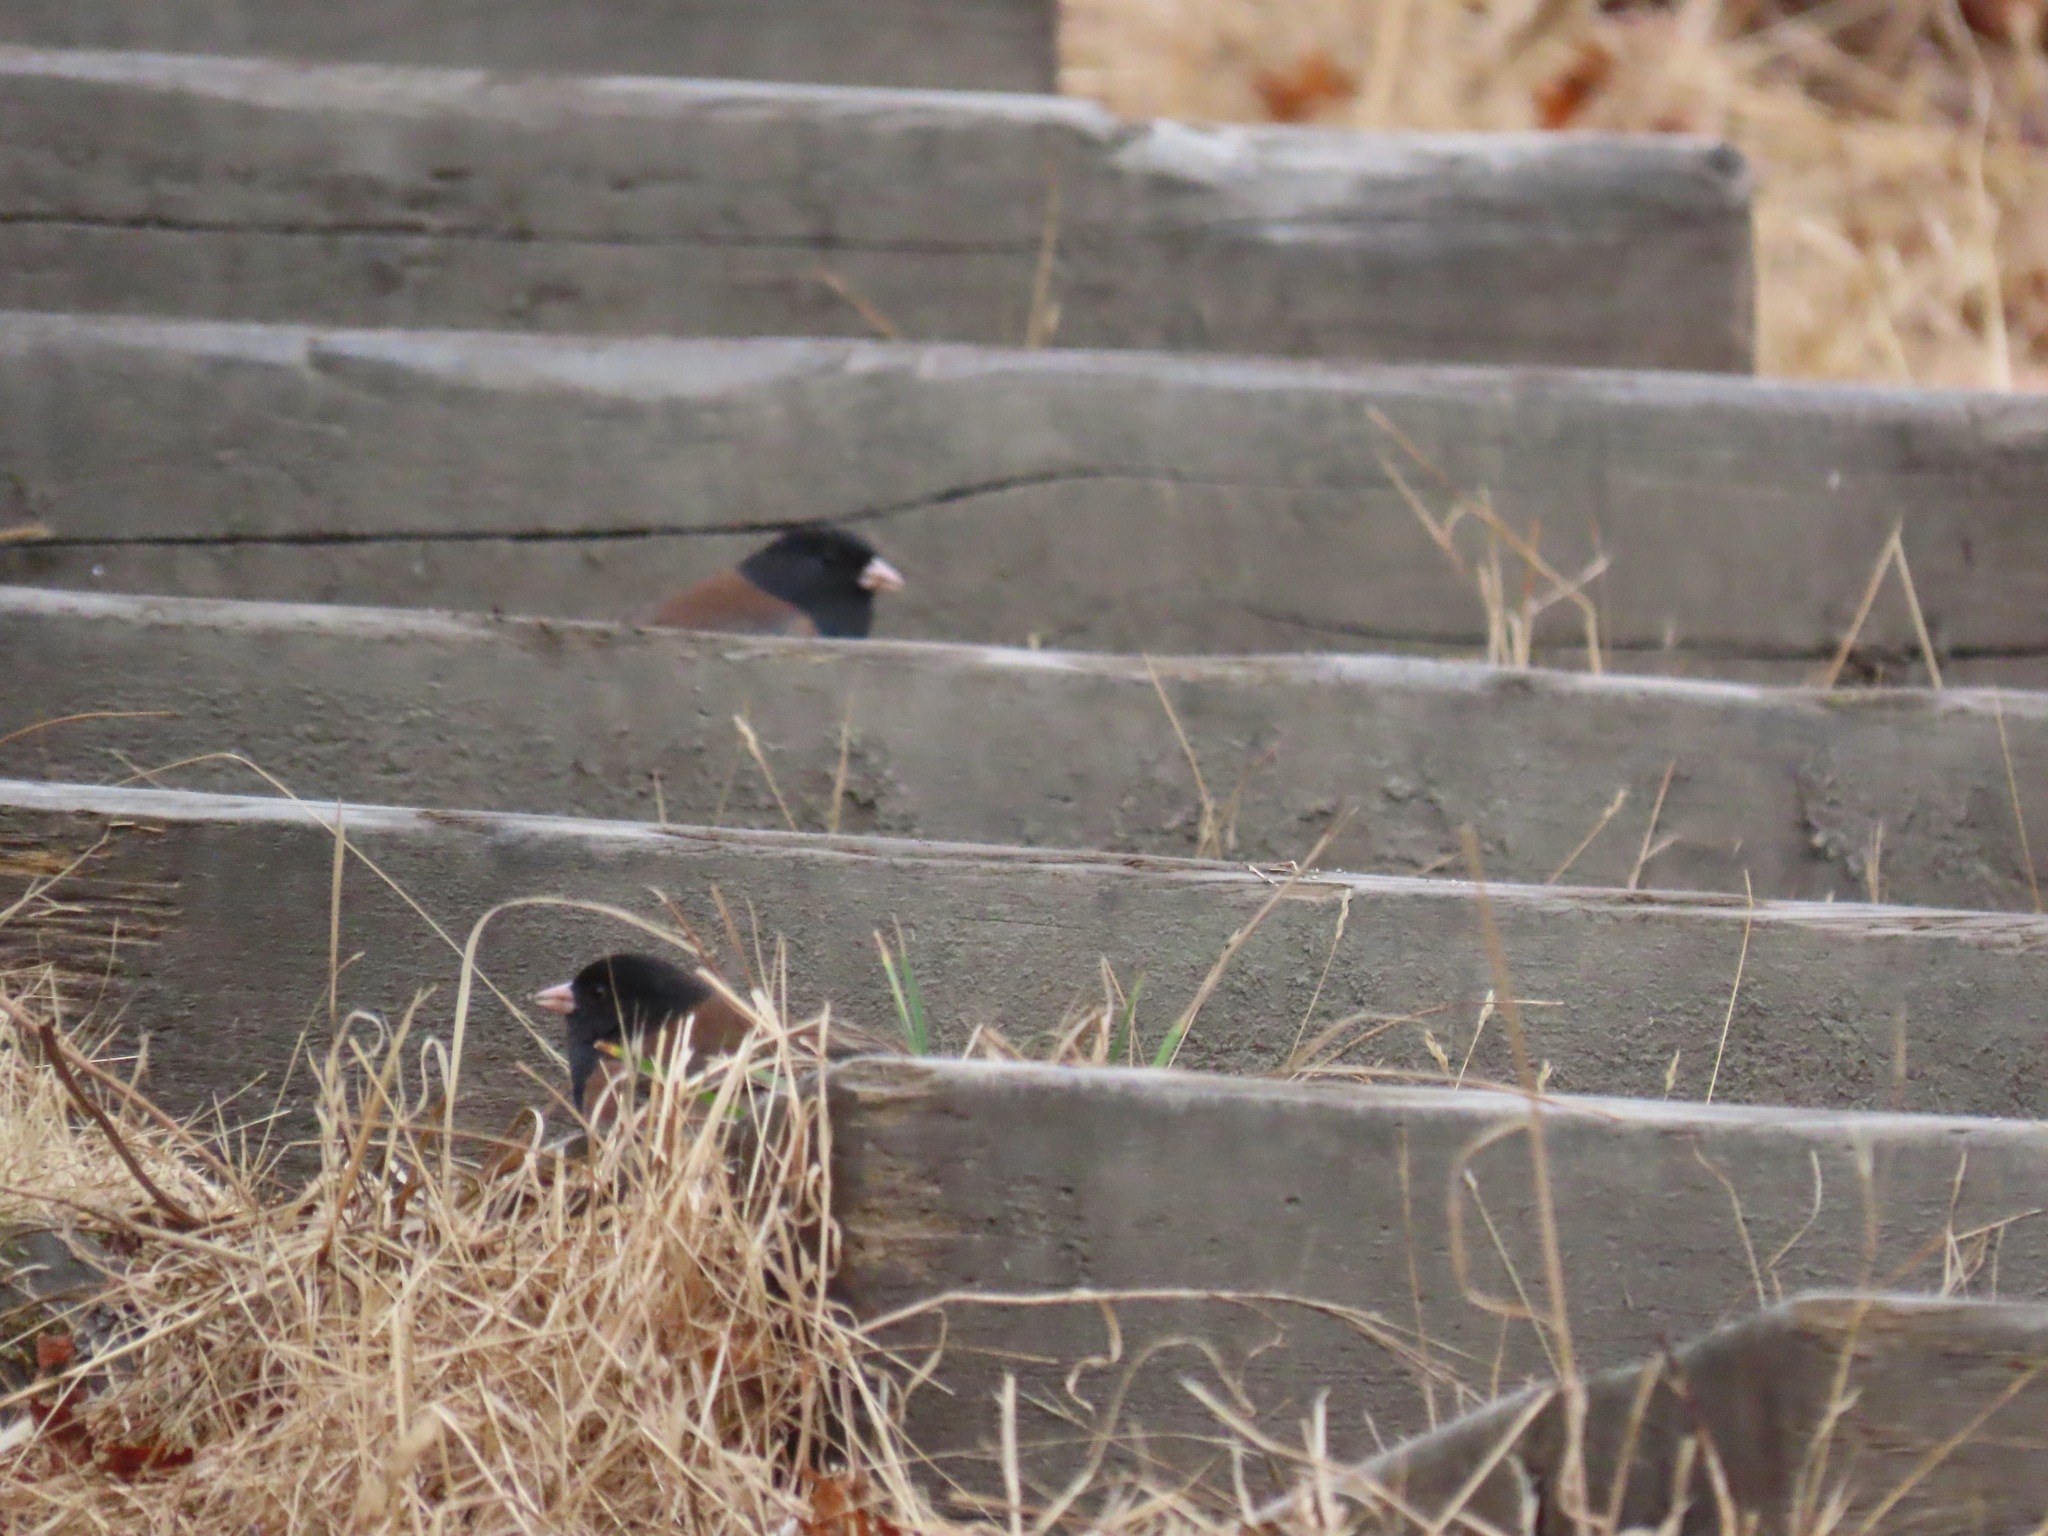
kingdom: Animalia
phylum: Chordata
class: Aves
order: Passeriformes
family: Passerellidae
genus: Junco
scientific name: Junco hyemalis
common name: Dark-eyed junco
